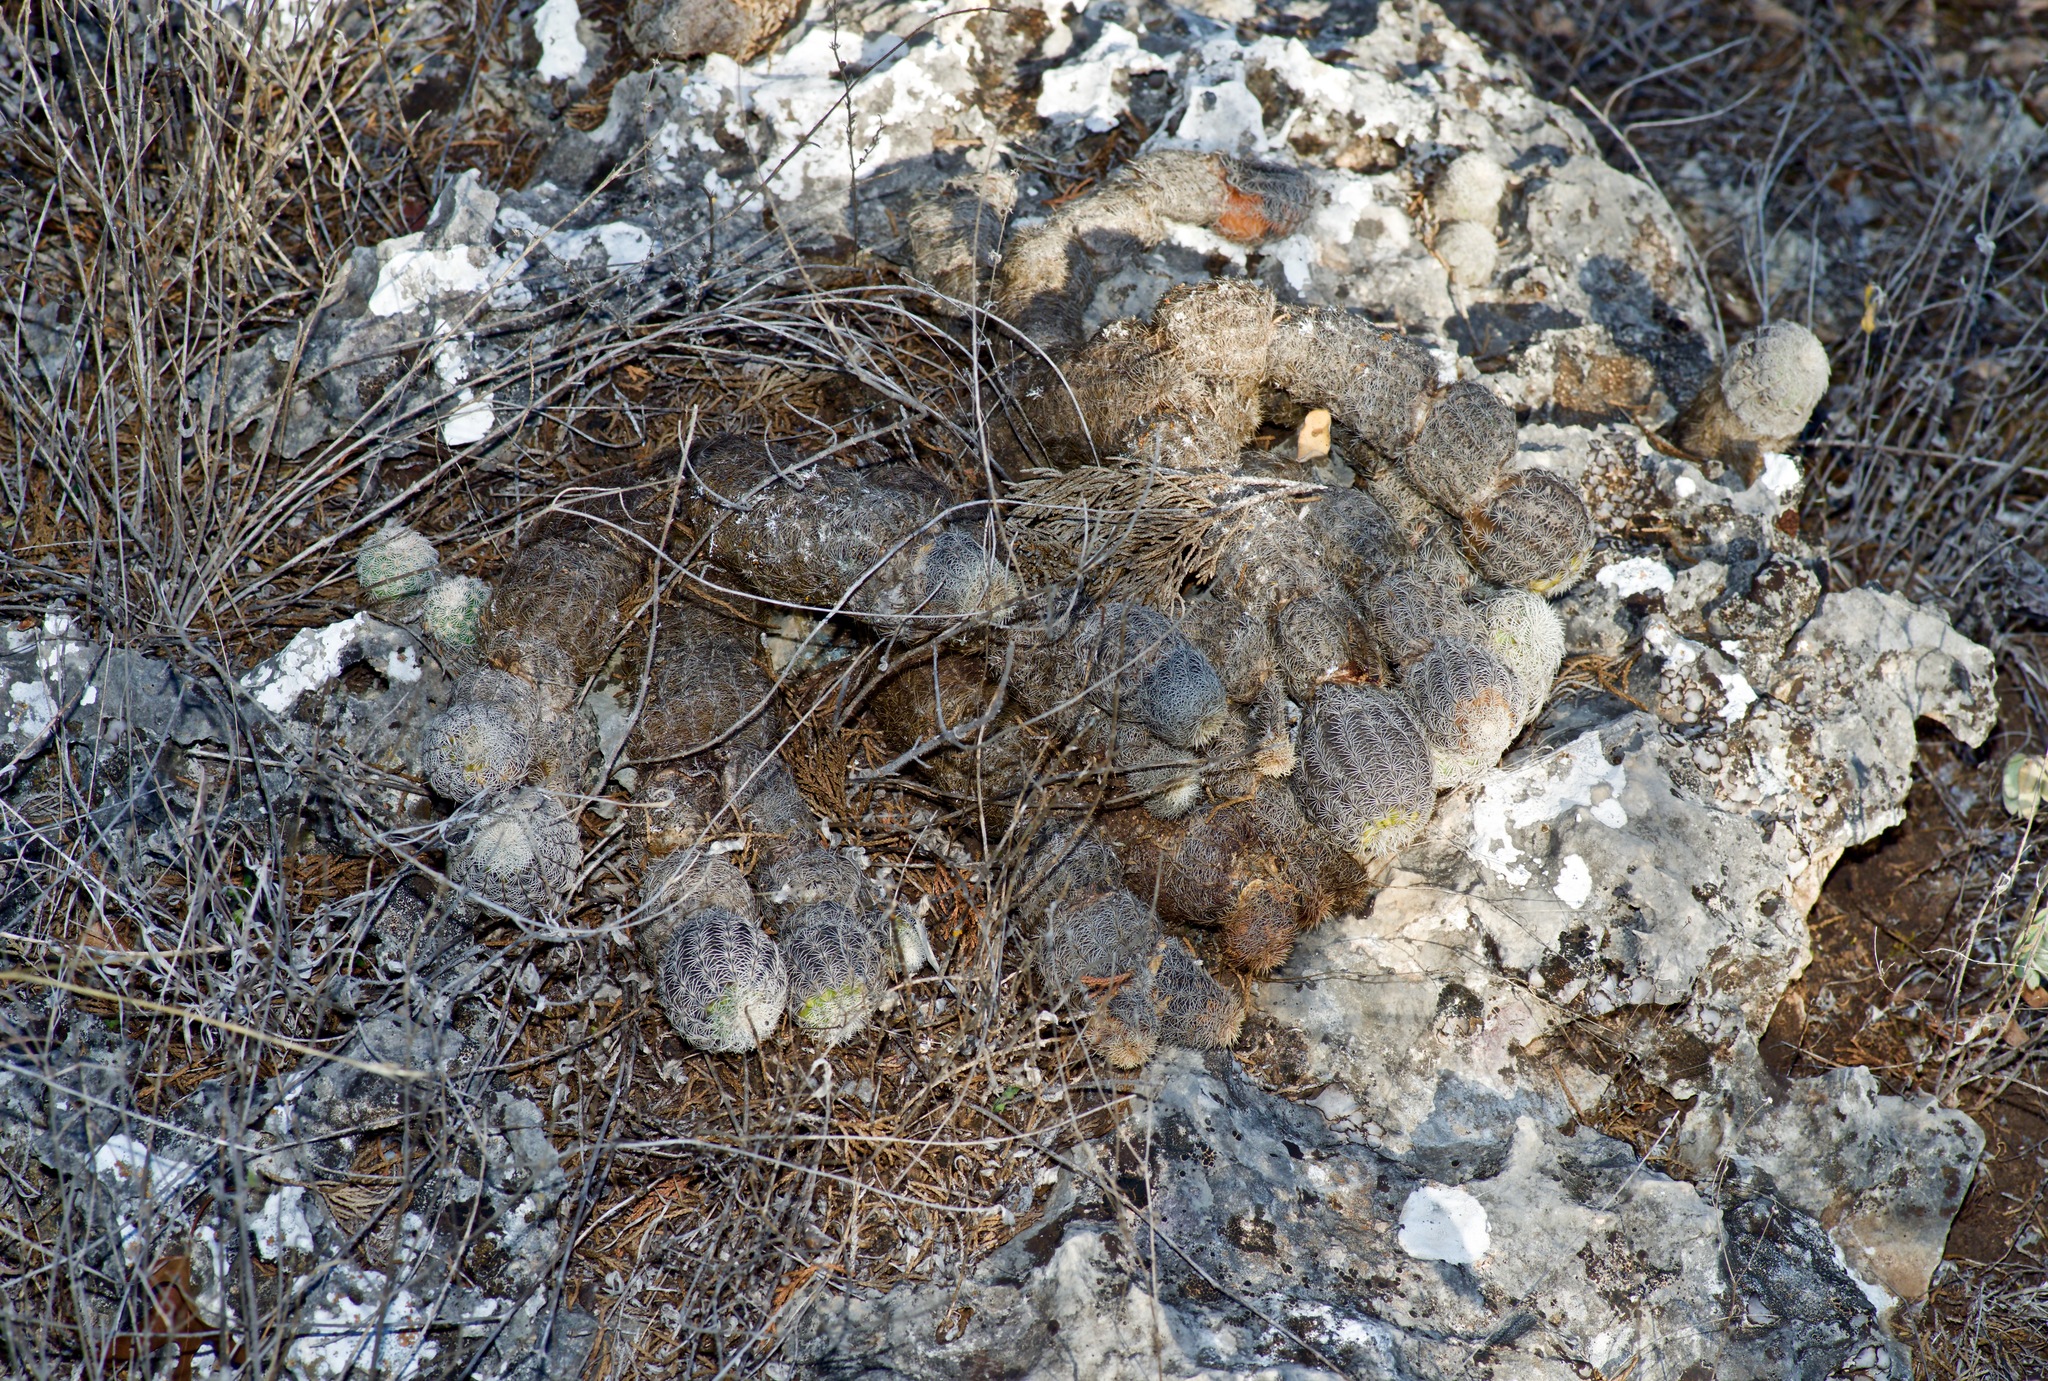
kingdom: Plantae
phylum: Tracheophyta
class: Magnoliopsida
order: Caryophyllales
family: Cactaceae
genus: Echinocereus
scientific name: Echinocereus reichenbachii
